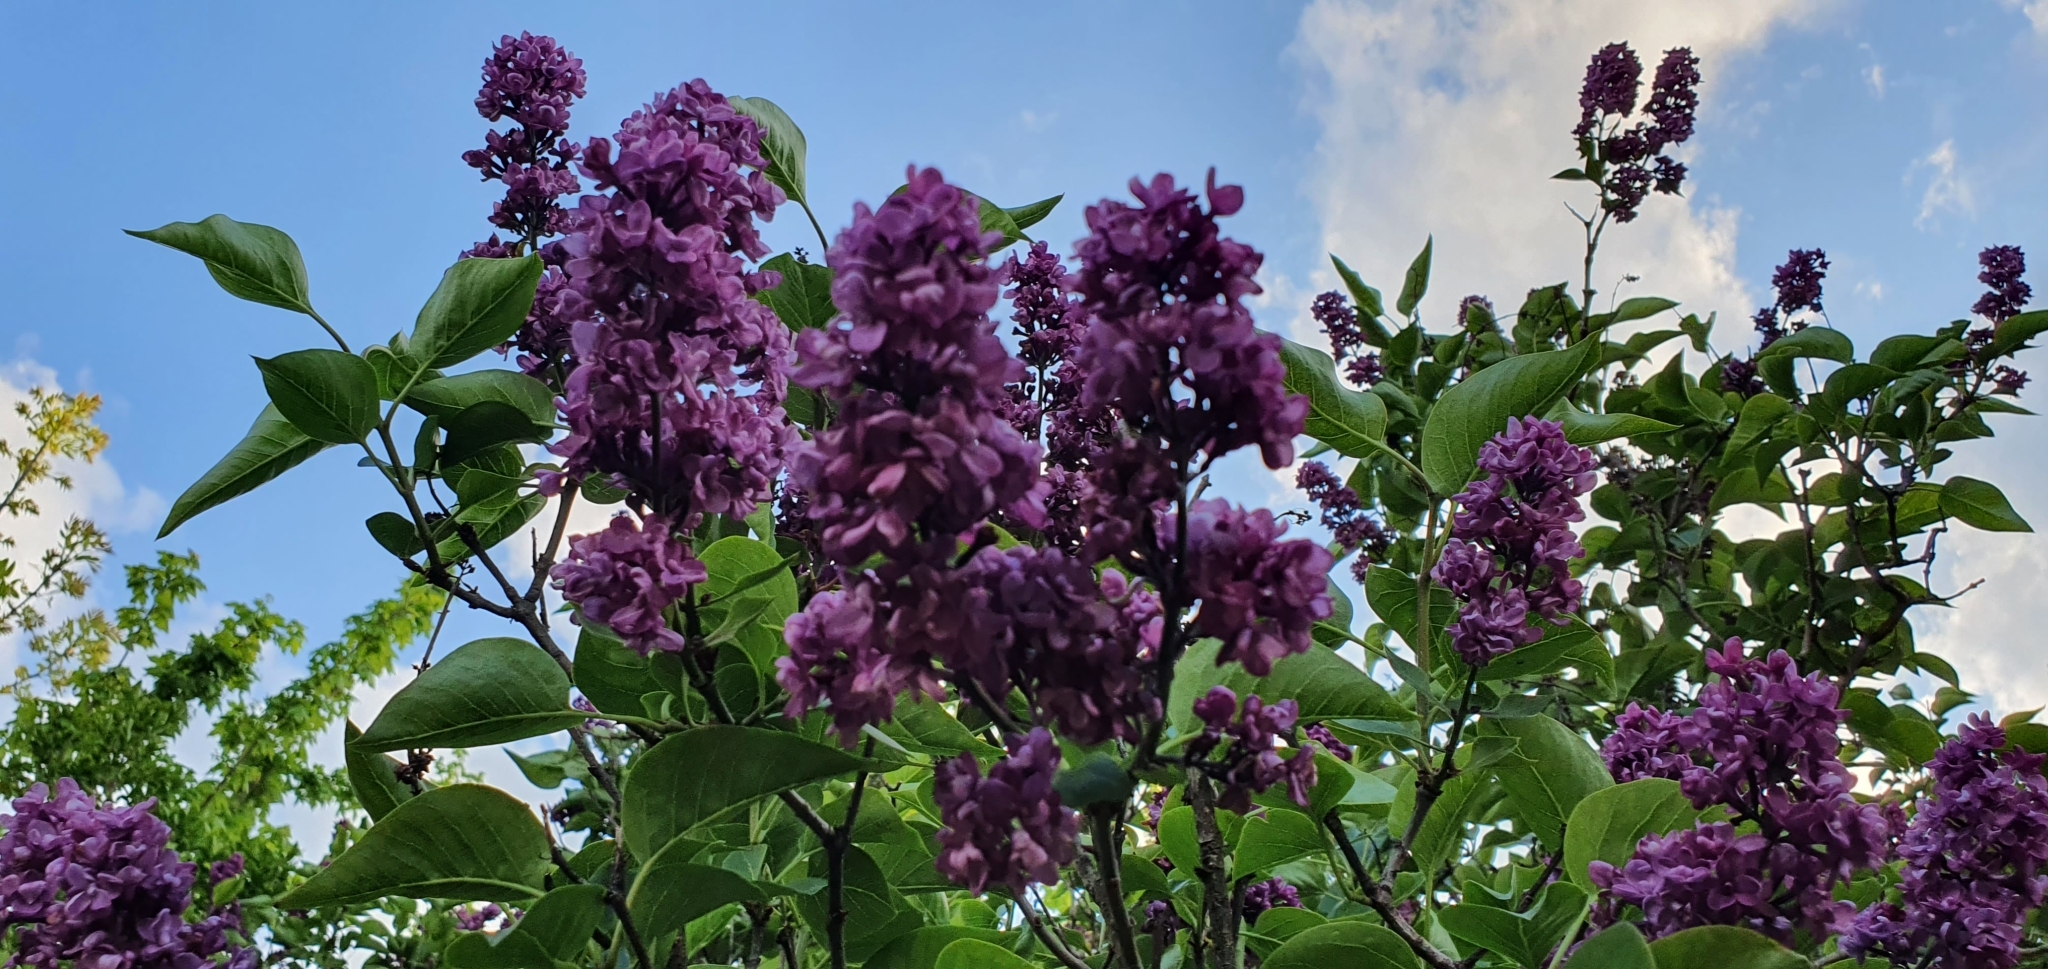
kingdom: Plantae
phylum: Tracheophyta
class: Magnoliopsida
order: Lamiales
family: Oleaceae
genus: Syringa
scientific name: Syringa vulgaris
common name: Common lilac
